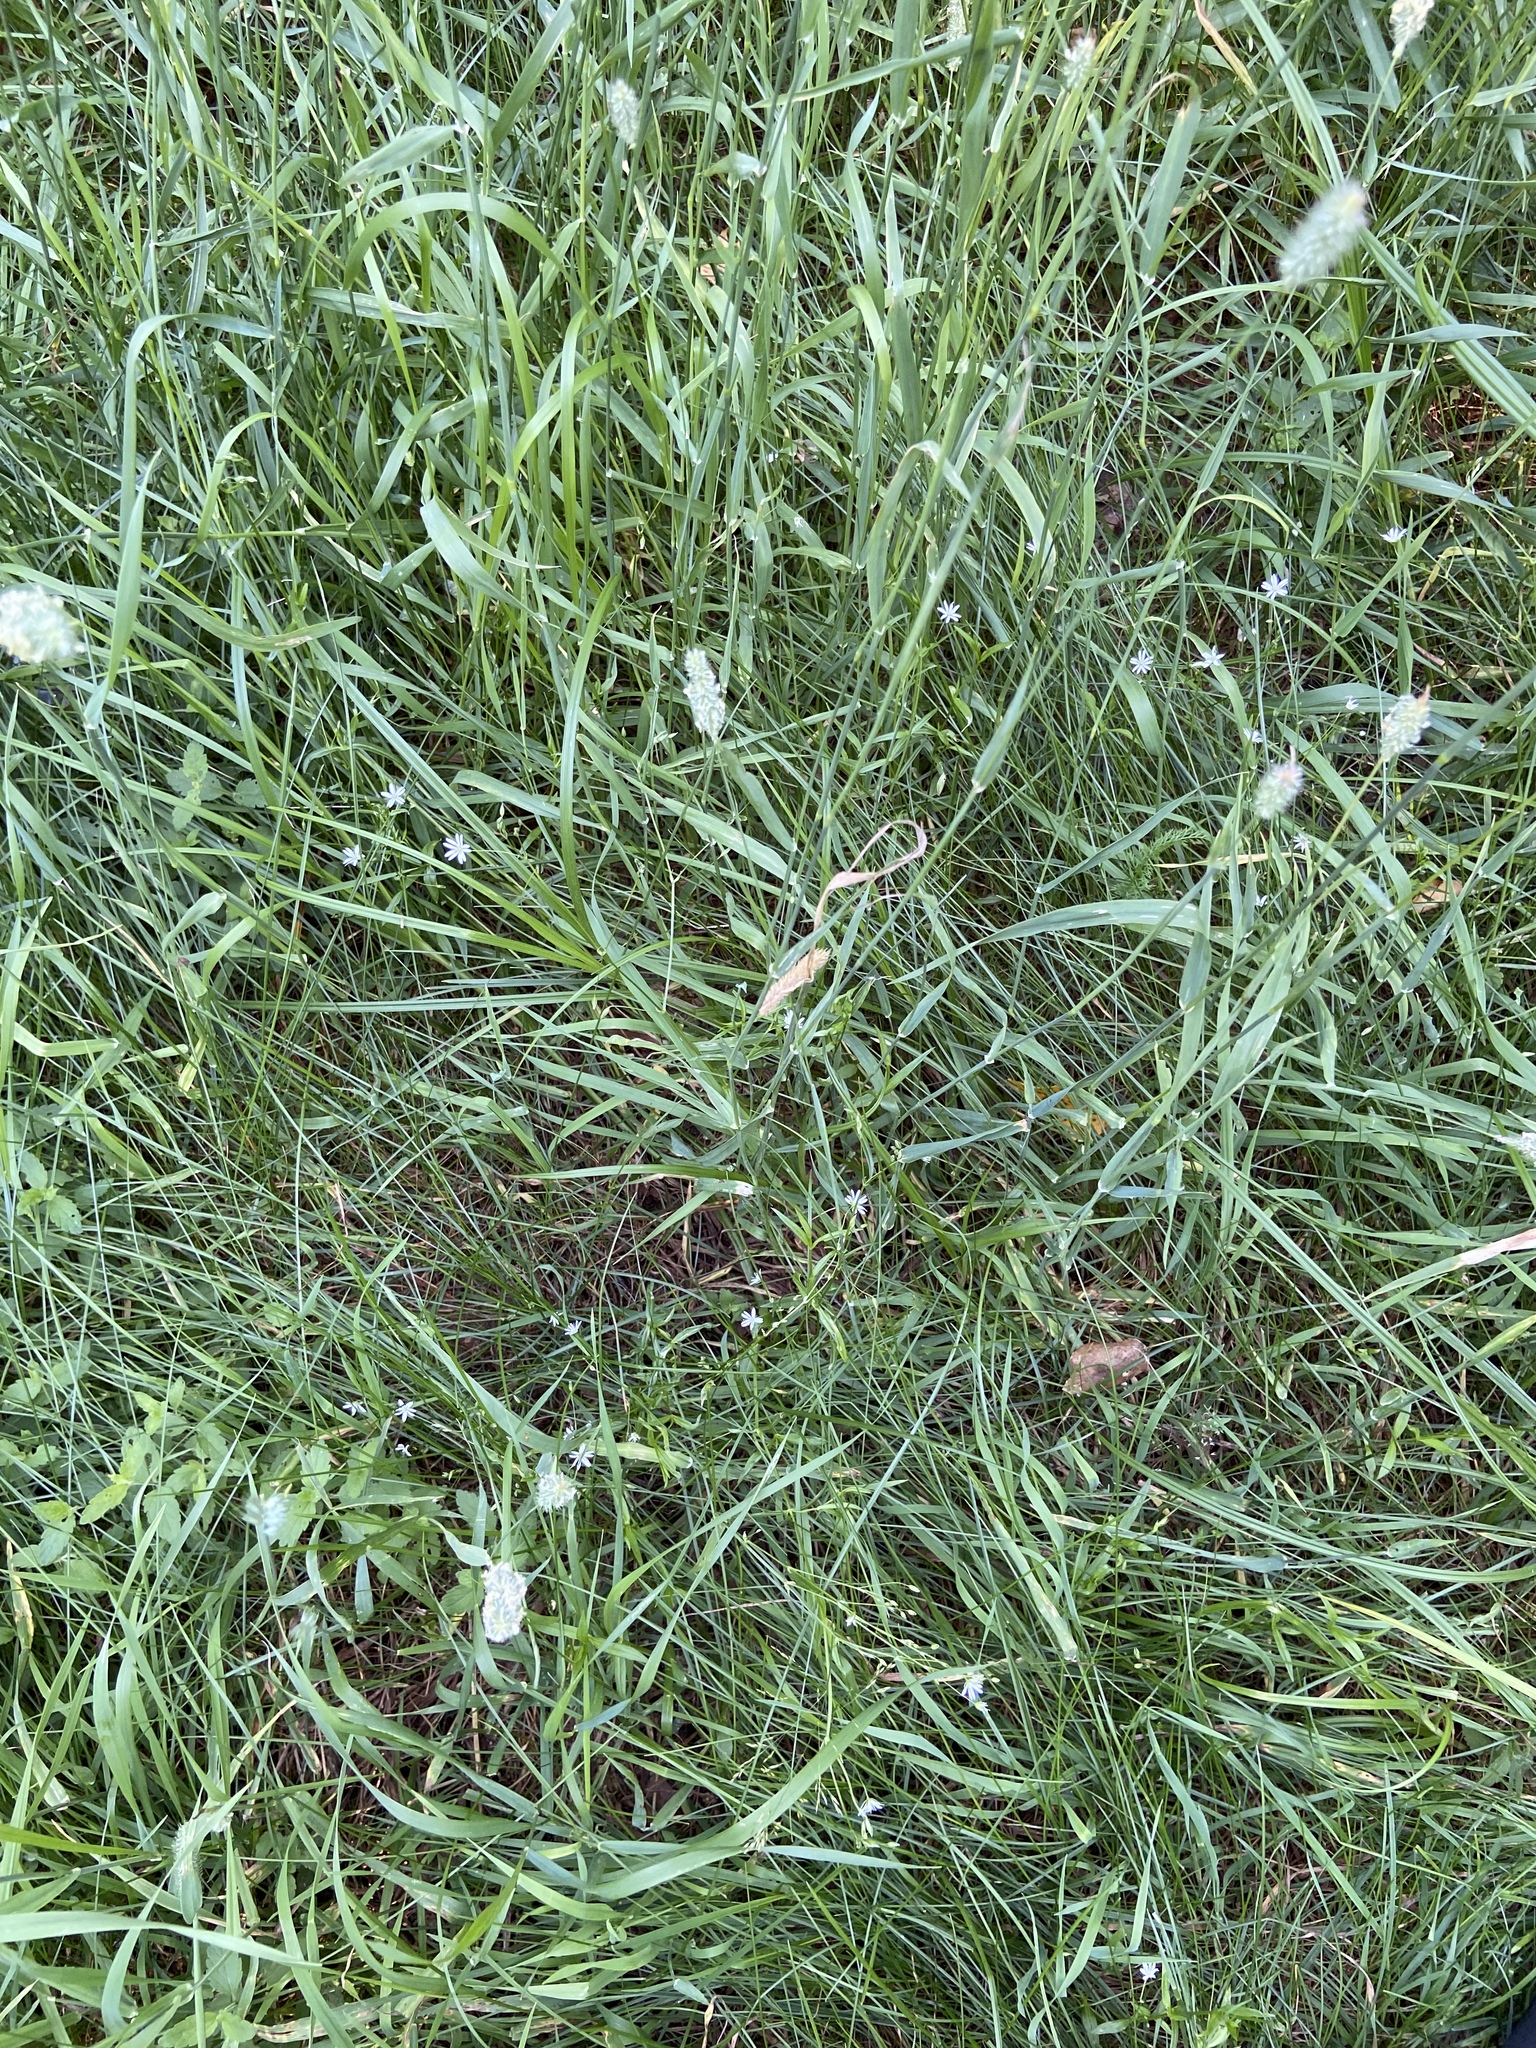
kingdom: Plantae
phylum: Tracheophyta
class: Magnoliopsida
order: Caryophyllales
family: Caryophyllaceae
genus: Stellaria
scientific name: Stellaria graminea
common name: Grass-like starwort
